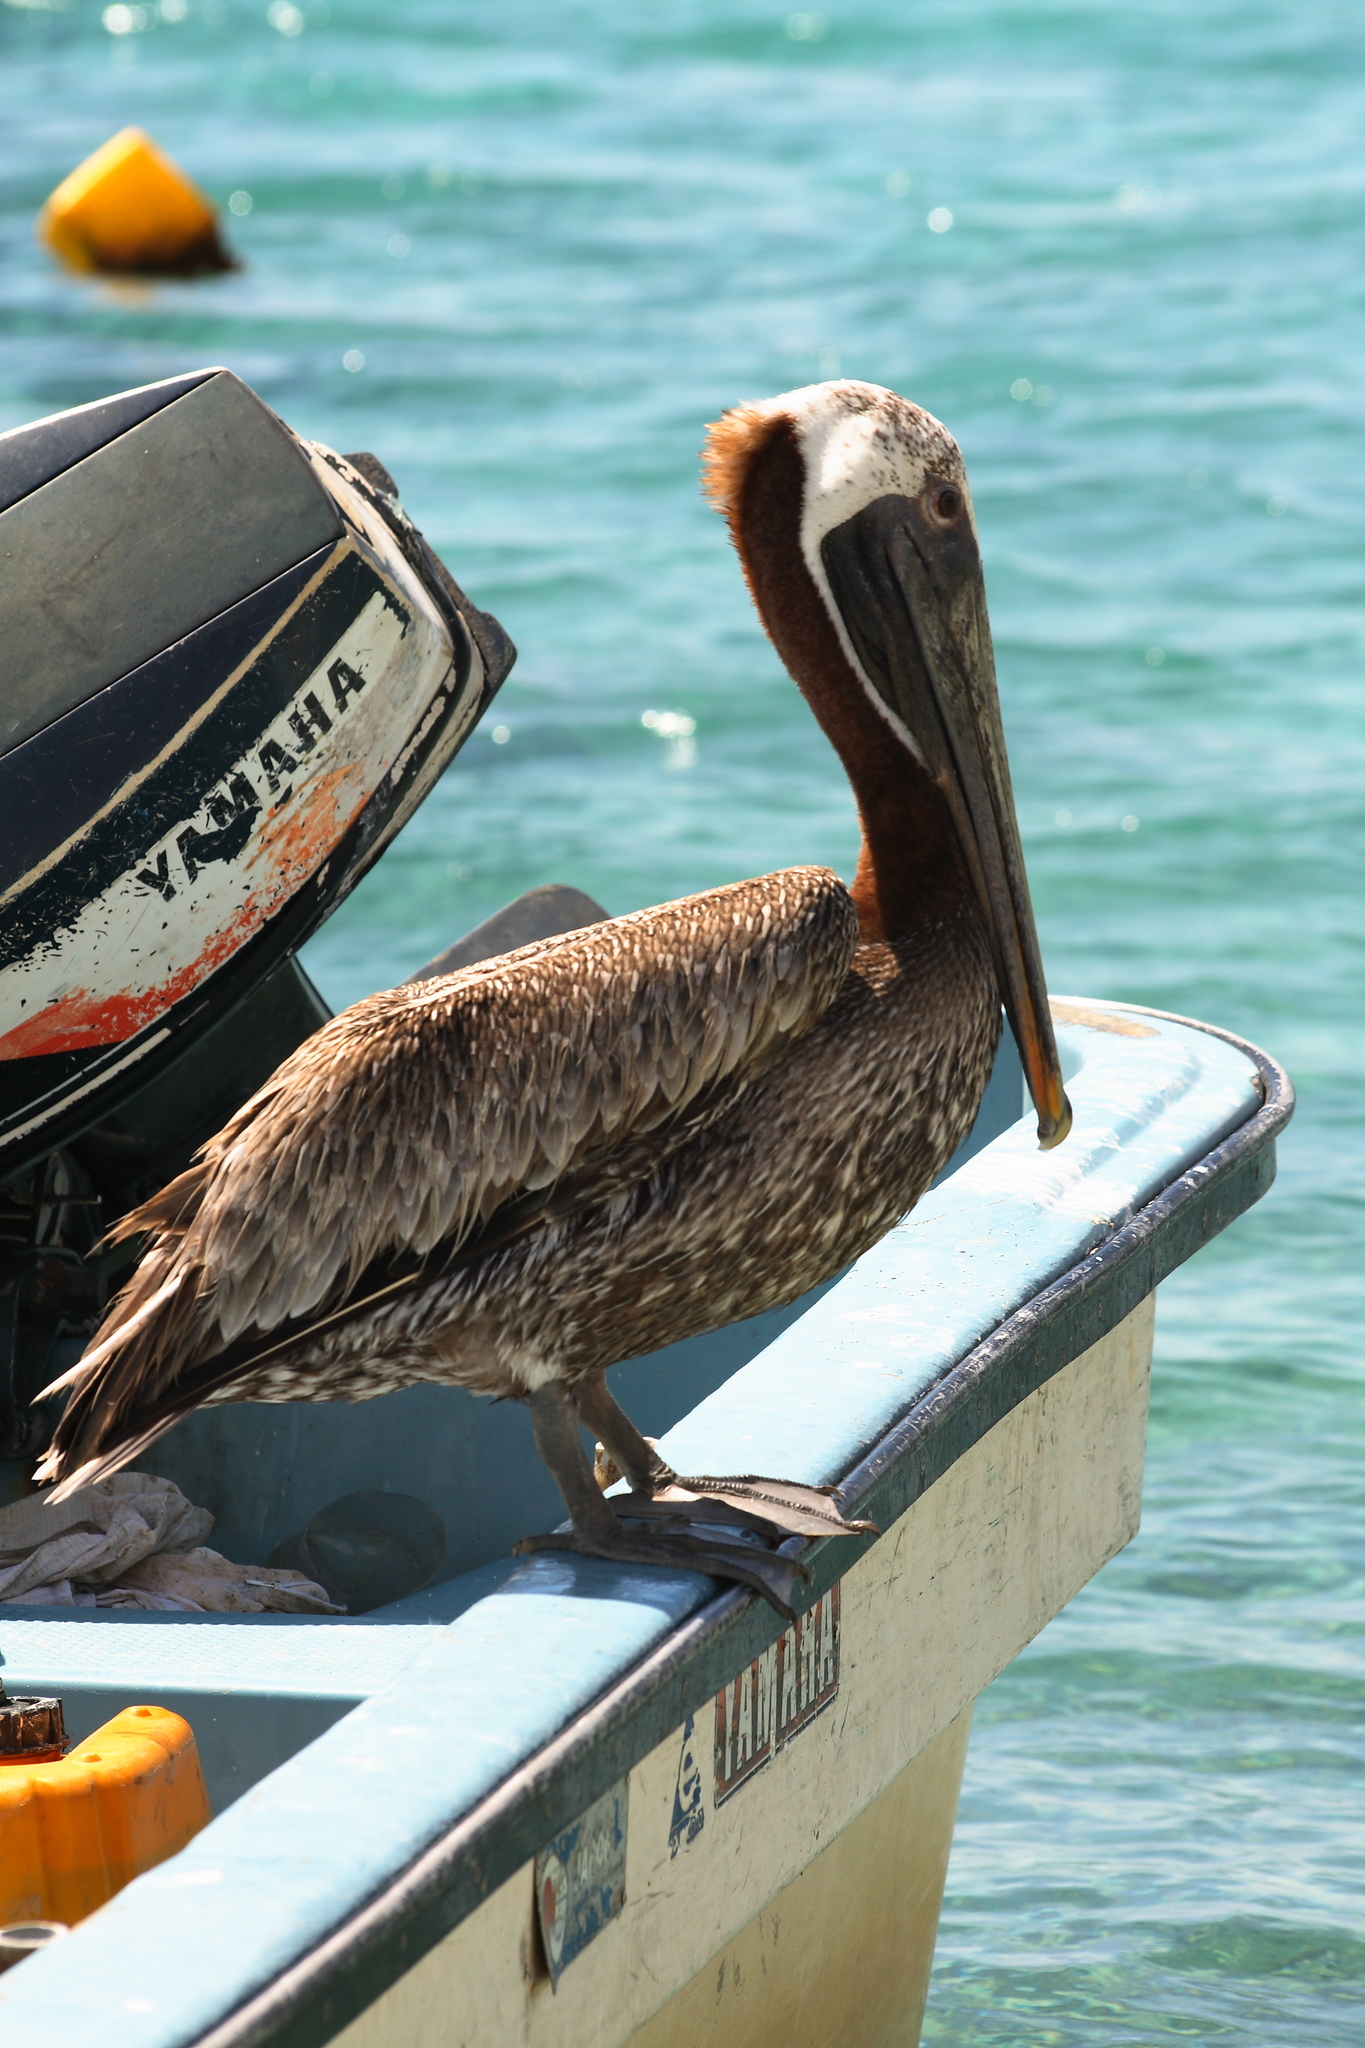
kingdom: Animalia
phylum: Chordata
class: Aves
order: Pelecaniformes
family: Pelecanidae
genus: Pelecanus
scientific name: Pelecanus occidentalis
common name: Brown pelican
